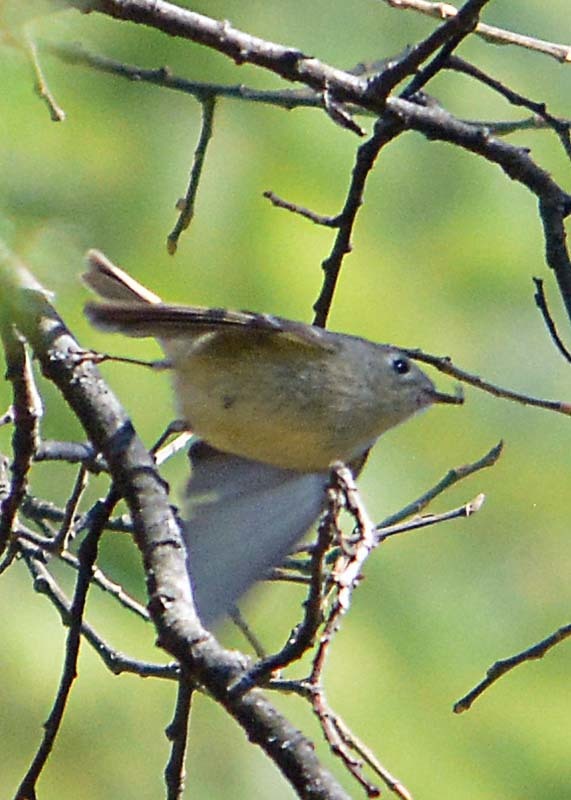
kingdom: Animalia
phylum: Chordata
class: Aves
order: Passeriformes
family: Regulidae
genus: Regulus
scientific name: Regulus calendula
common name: Ruby-crowned kinglet
